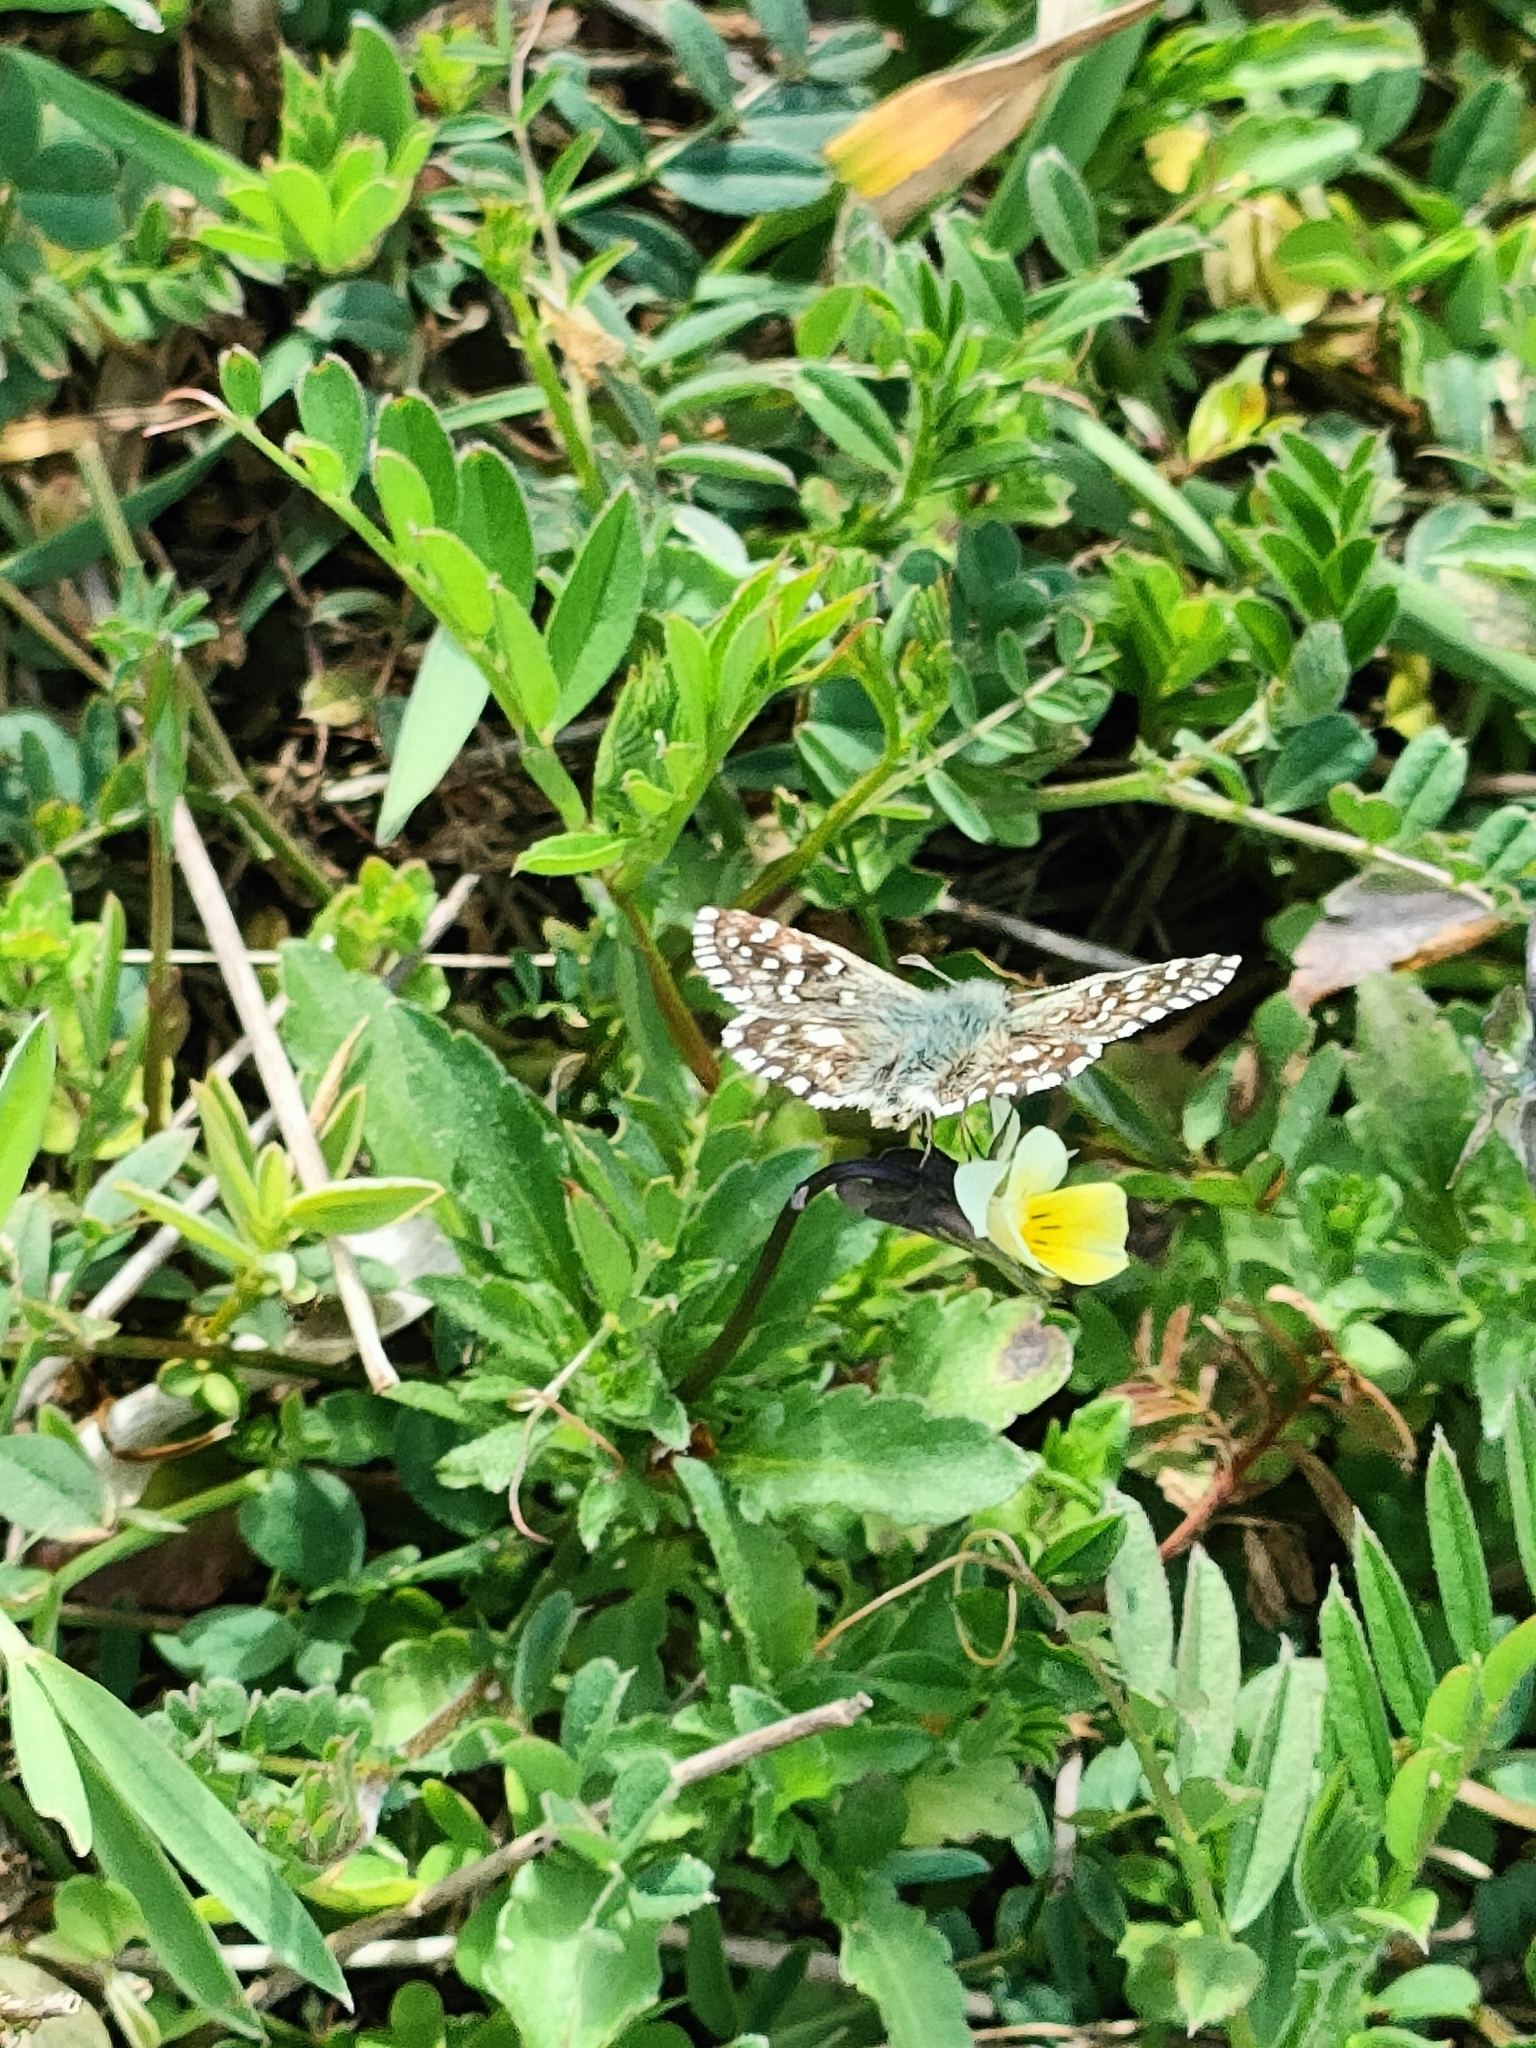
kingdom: Animalia
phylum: Arthropoda
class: Insecta
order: Lepidoptera
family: Hesperiidae
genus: Pyrgus
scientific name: Pyrgus malvoides
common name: Southern grizzled skipper
